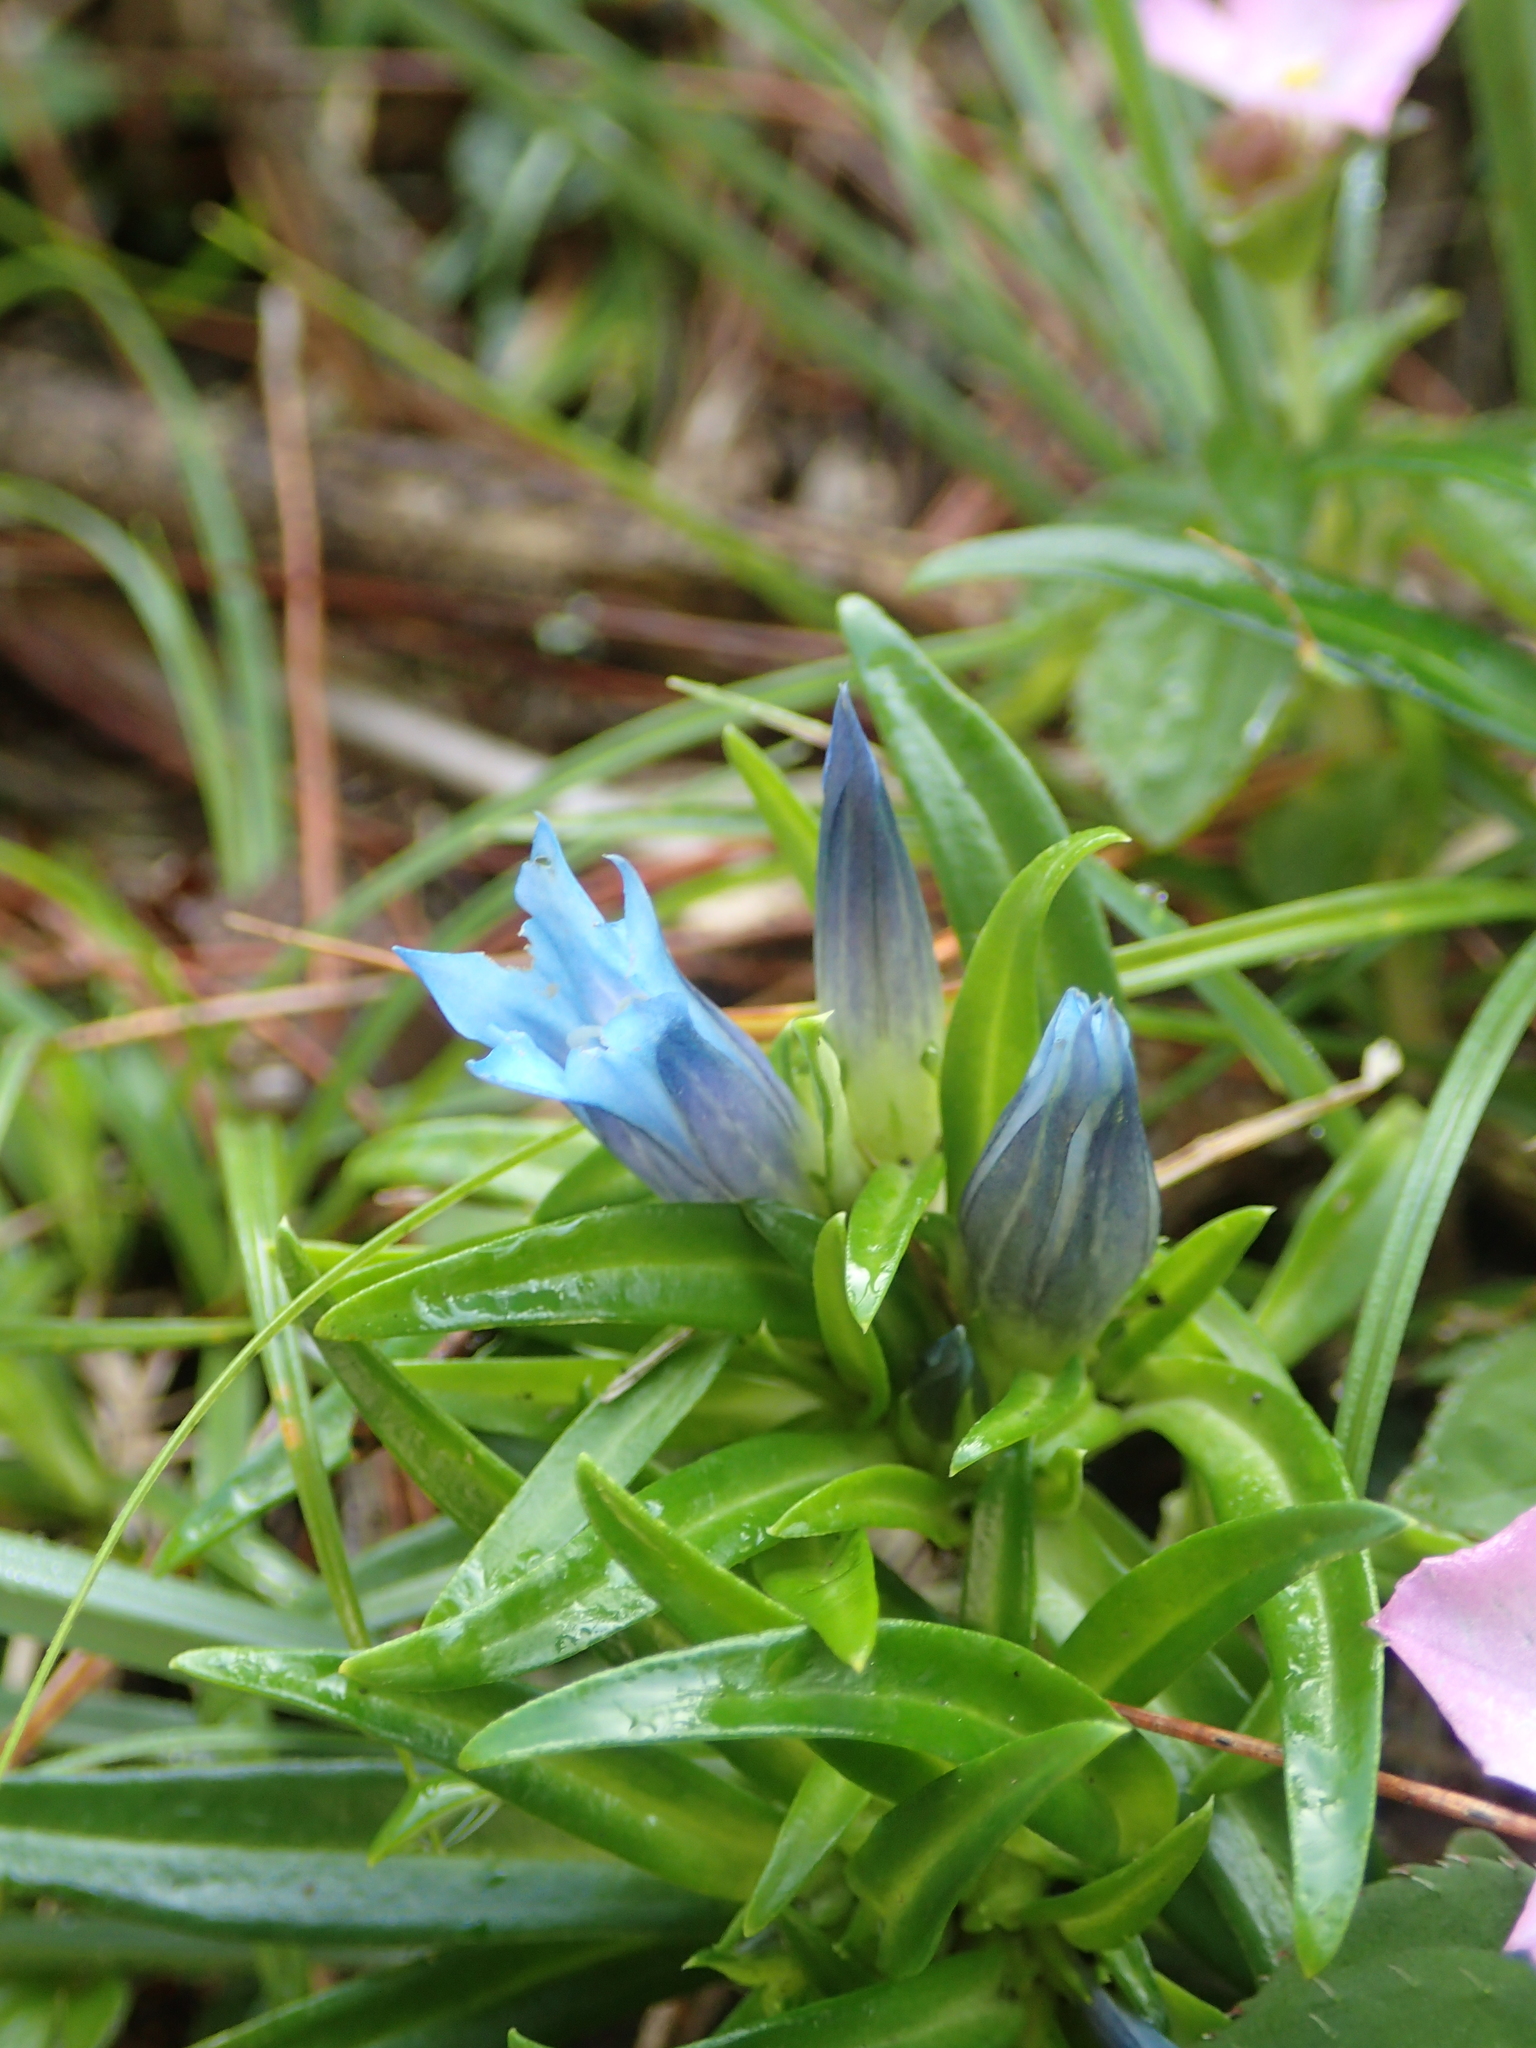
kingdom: Plantae
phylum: Tracheophyta
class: Magnoliopsida
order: Gentianales
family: Gentianaceae
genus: Gentiana
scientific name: Gentiana davidii
